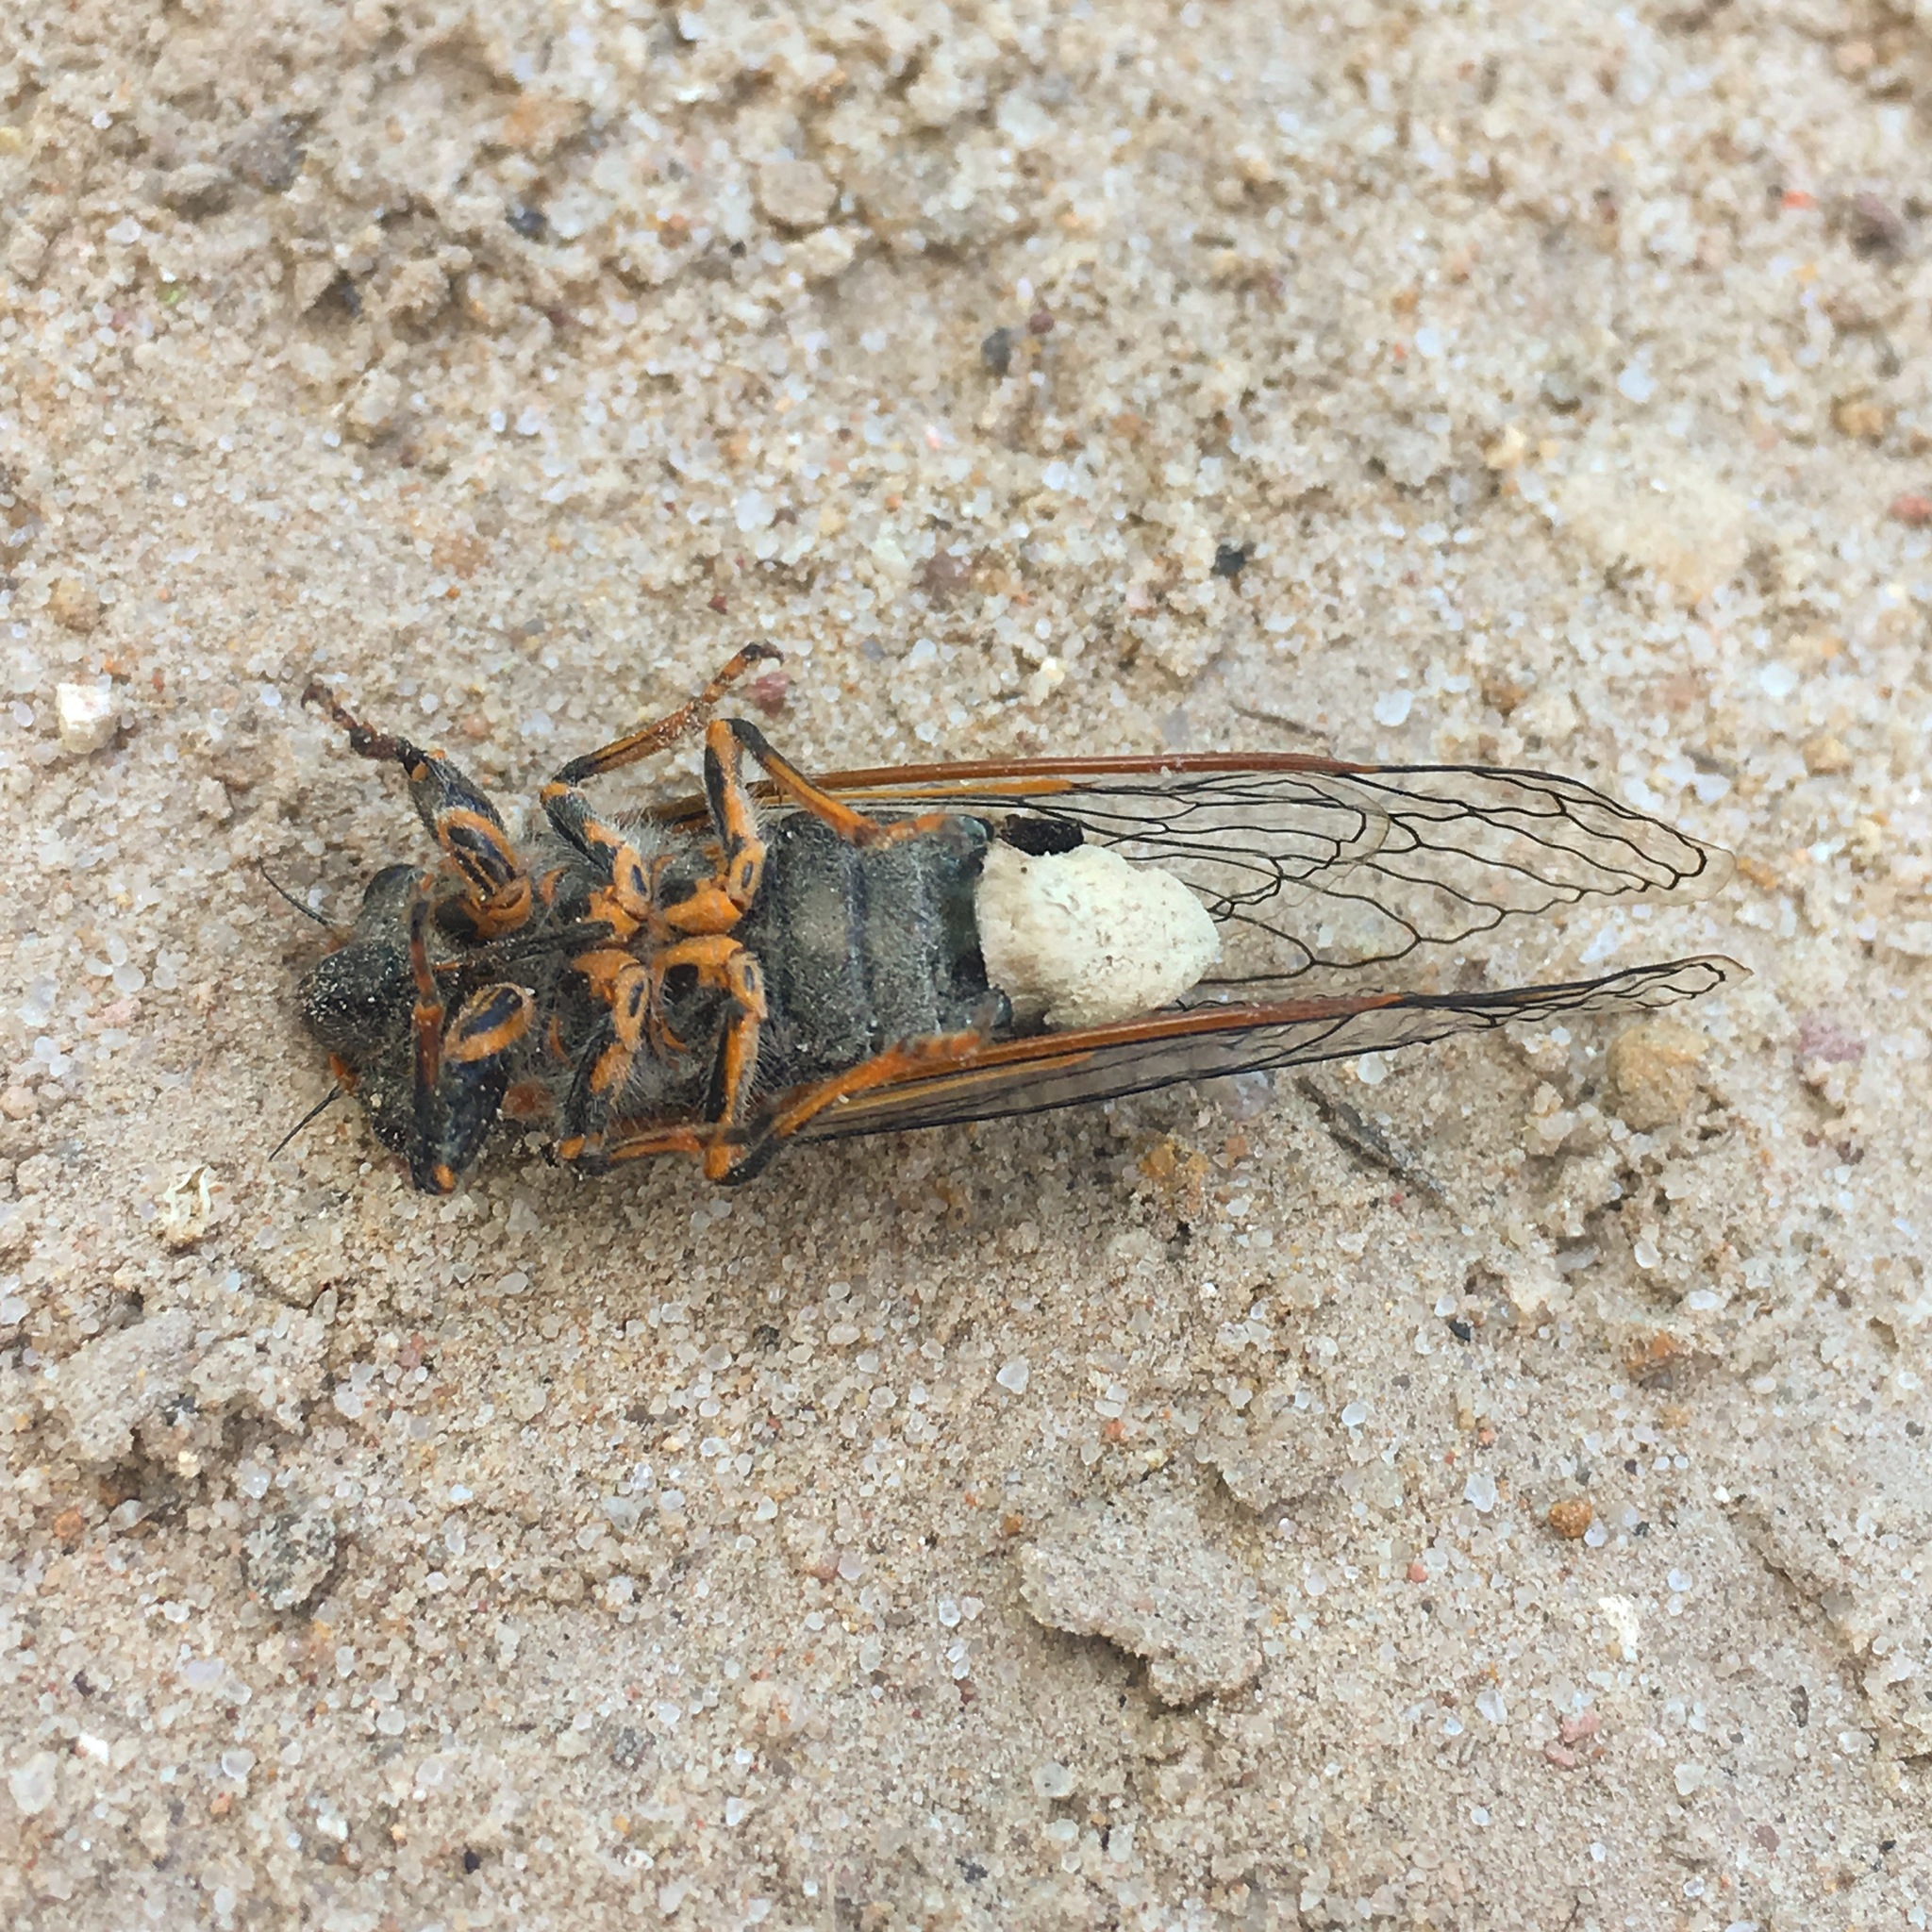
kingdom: Fungi
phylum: Entomophthoromycota
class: Entomophthoromycetes
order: Entomophthorales
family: Entomophthoraceae
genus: Massospora
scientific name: Massospora levispora
